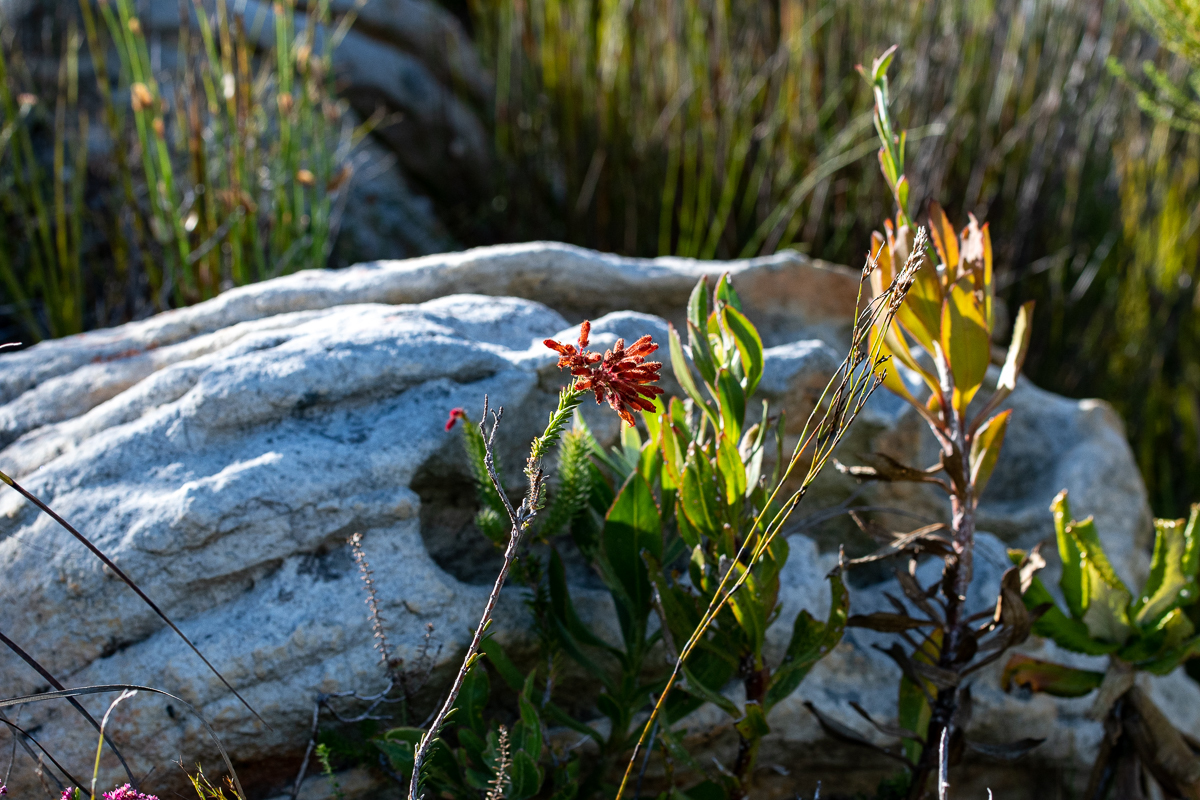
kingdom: Plantae
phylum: Tracheophyta
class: Magnoliopsida
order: Ericales
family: Ericaceae
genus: Erica
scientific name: Erica cerinthoides
